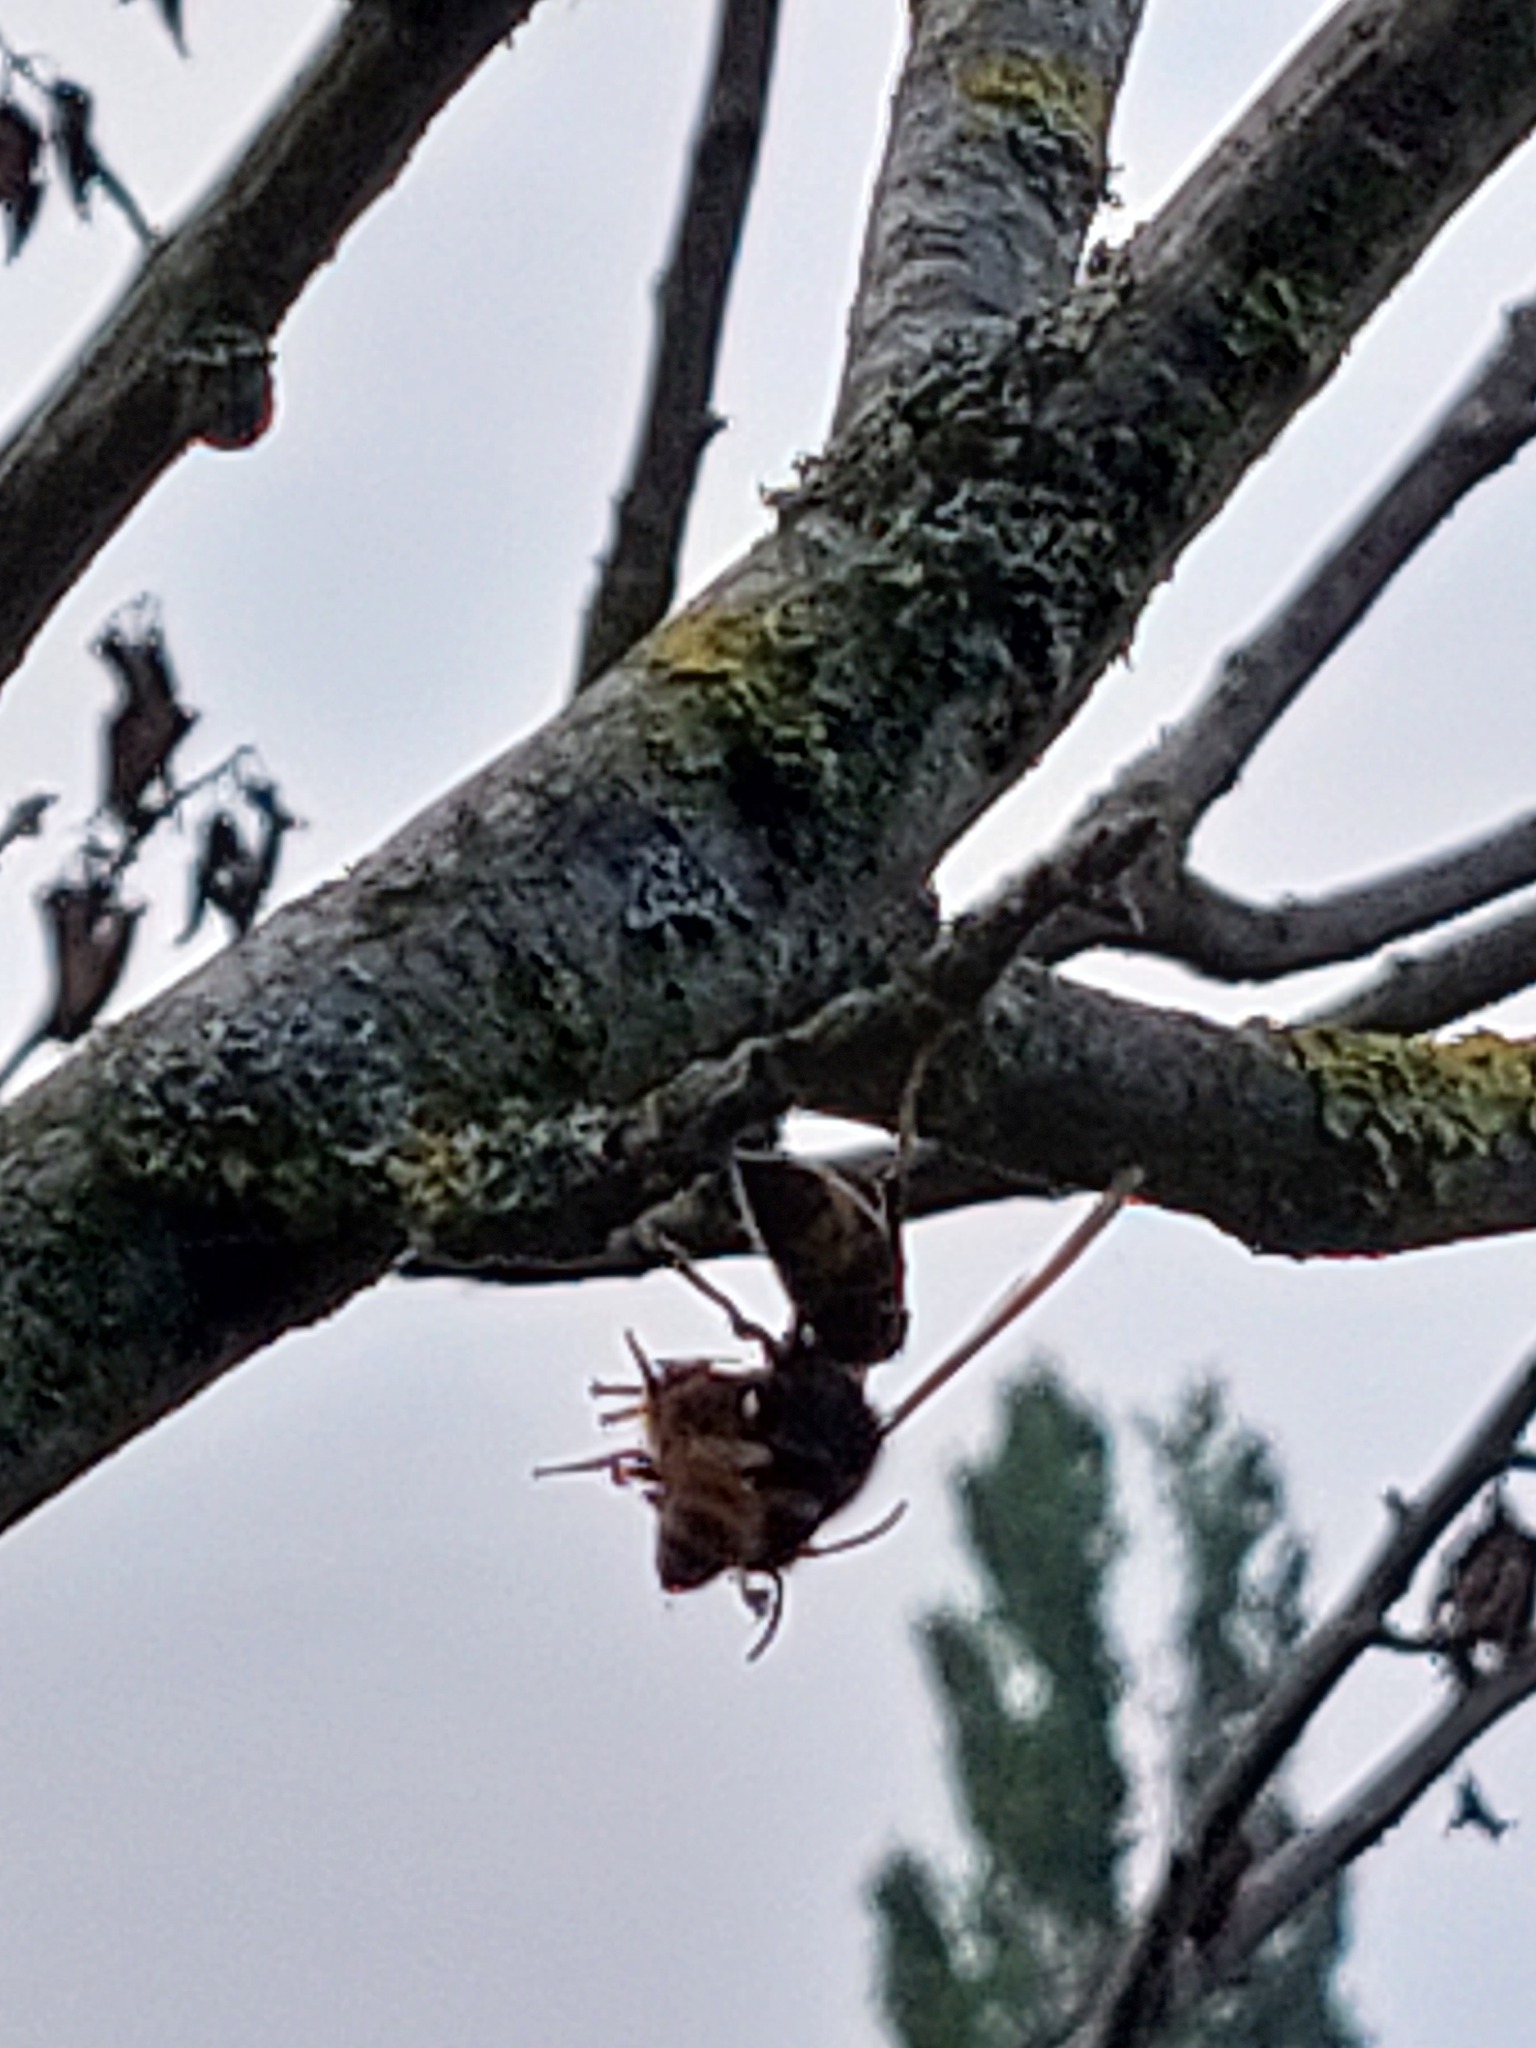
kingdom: Animalia
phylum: Arthropoda
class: Insecta
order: Hymenoptera
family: Vespidae
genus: Vespa
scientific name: Vespa velutina
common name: Asian hornet
